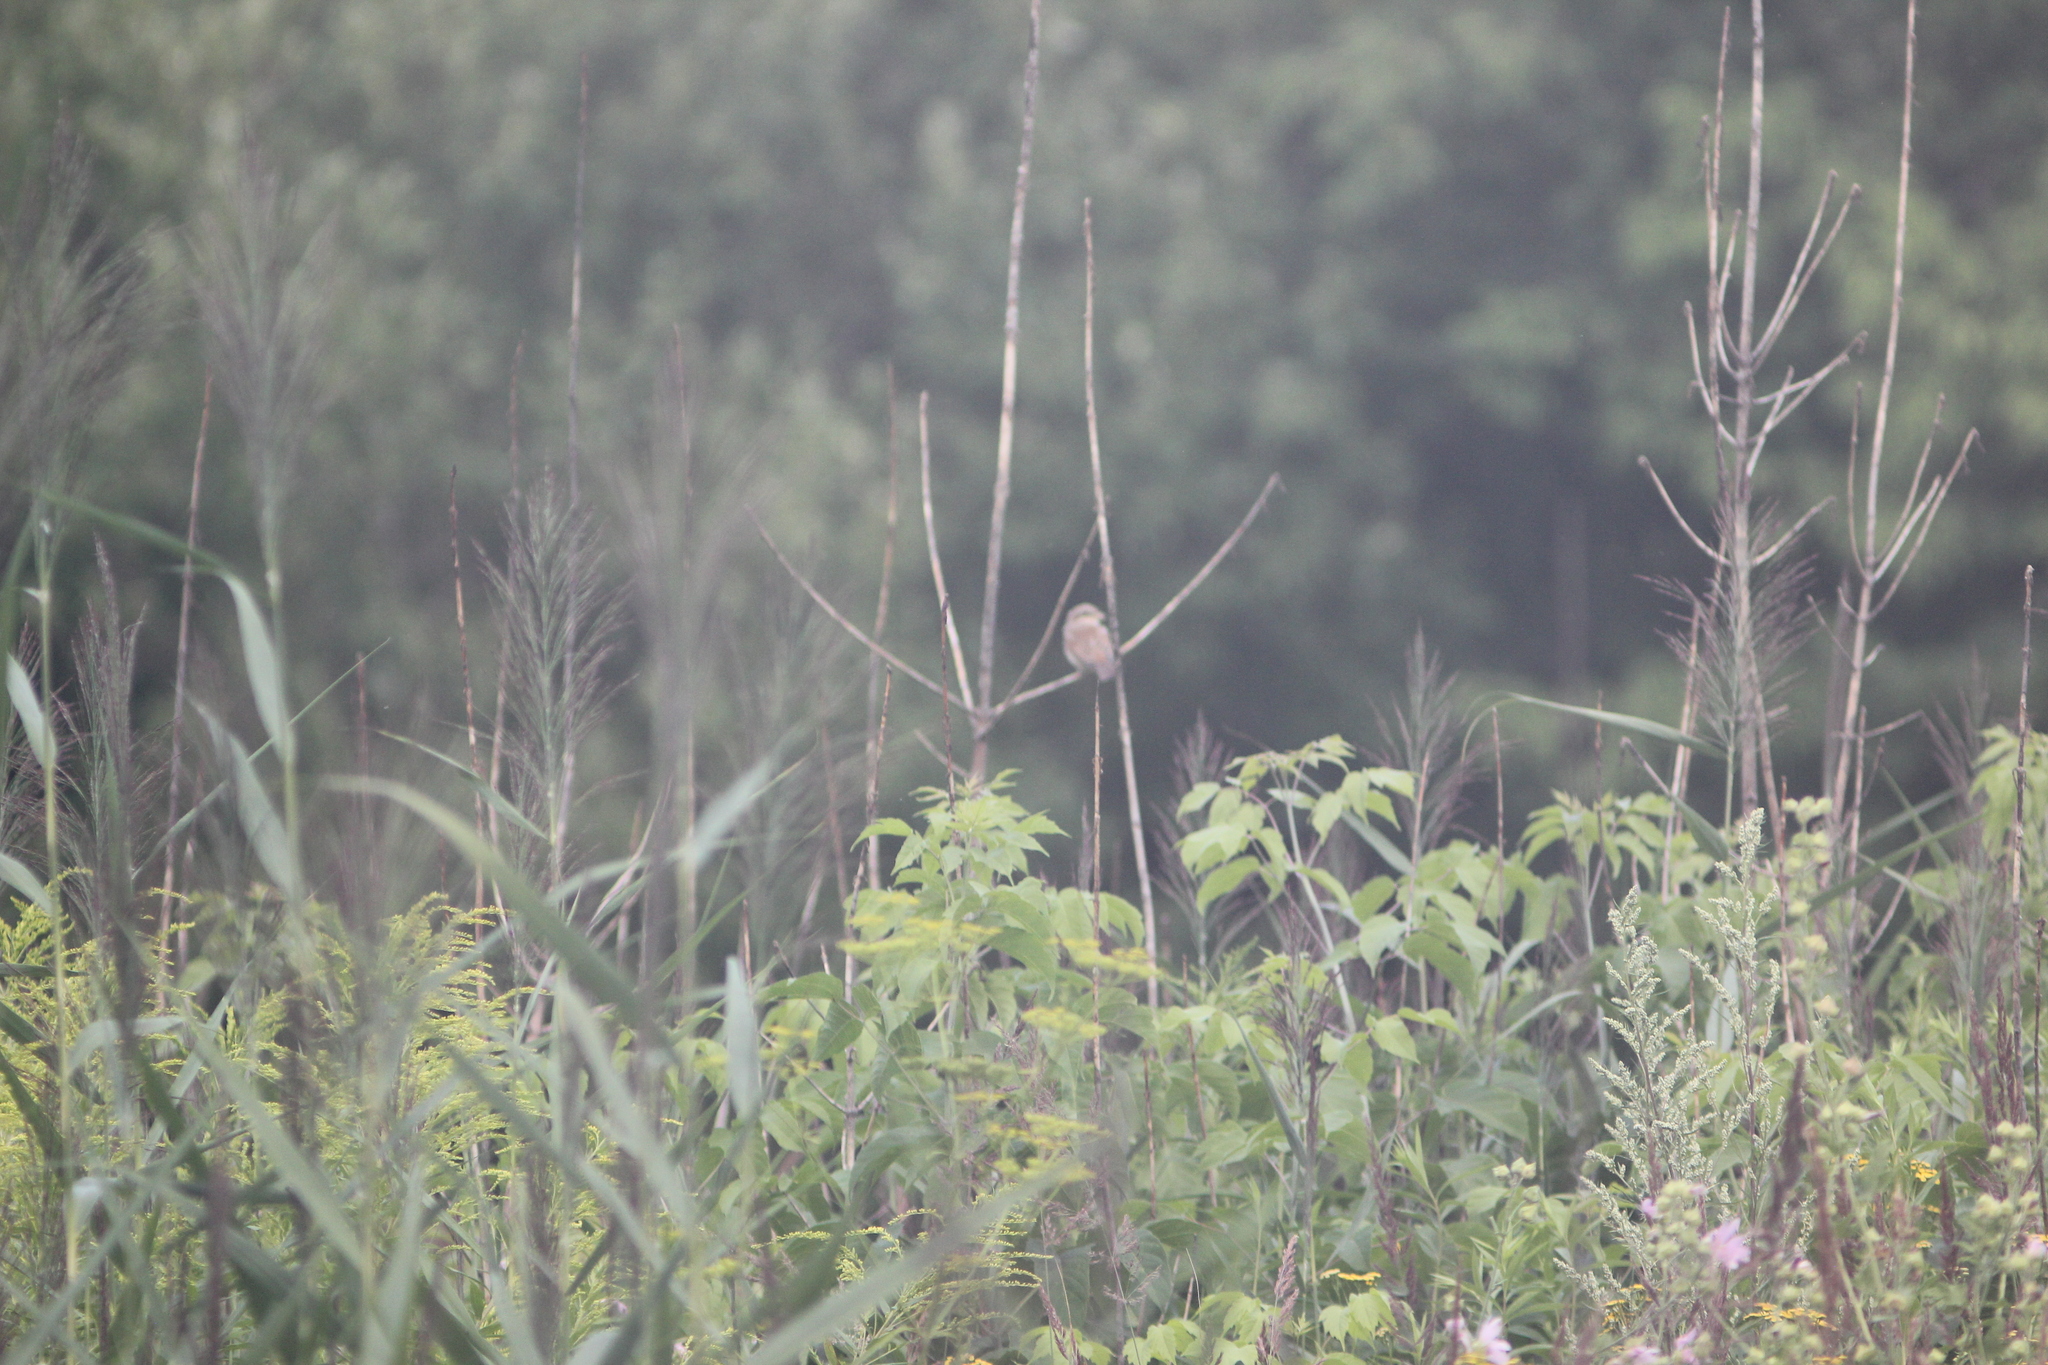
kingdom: Animalia
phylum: Chordata
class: Aves
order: Passeriformes
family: Laniidae
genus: Lanius
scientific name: Lanius collurio
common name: Red-backed shrike
